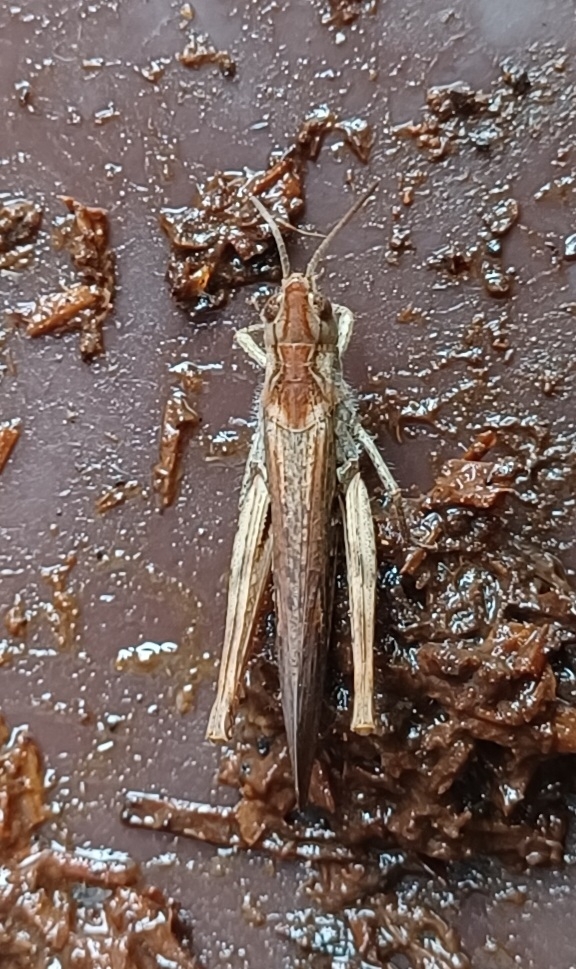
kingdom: Animalia
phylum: Arthropoda
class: Insecta
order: Orthoptera
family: Acrididae
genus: Chorthippus
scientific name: Chorthippus brunneus
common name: Field grasshopper
